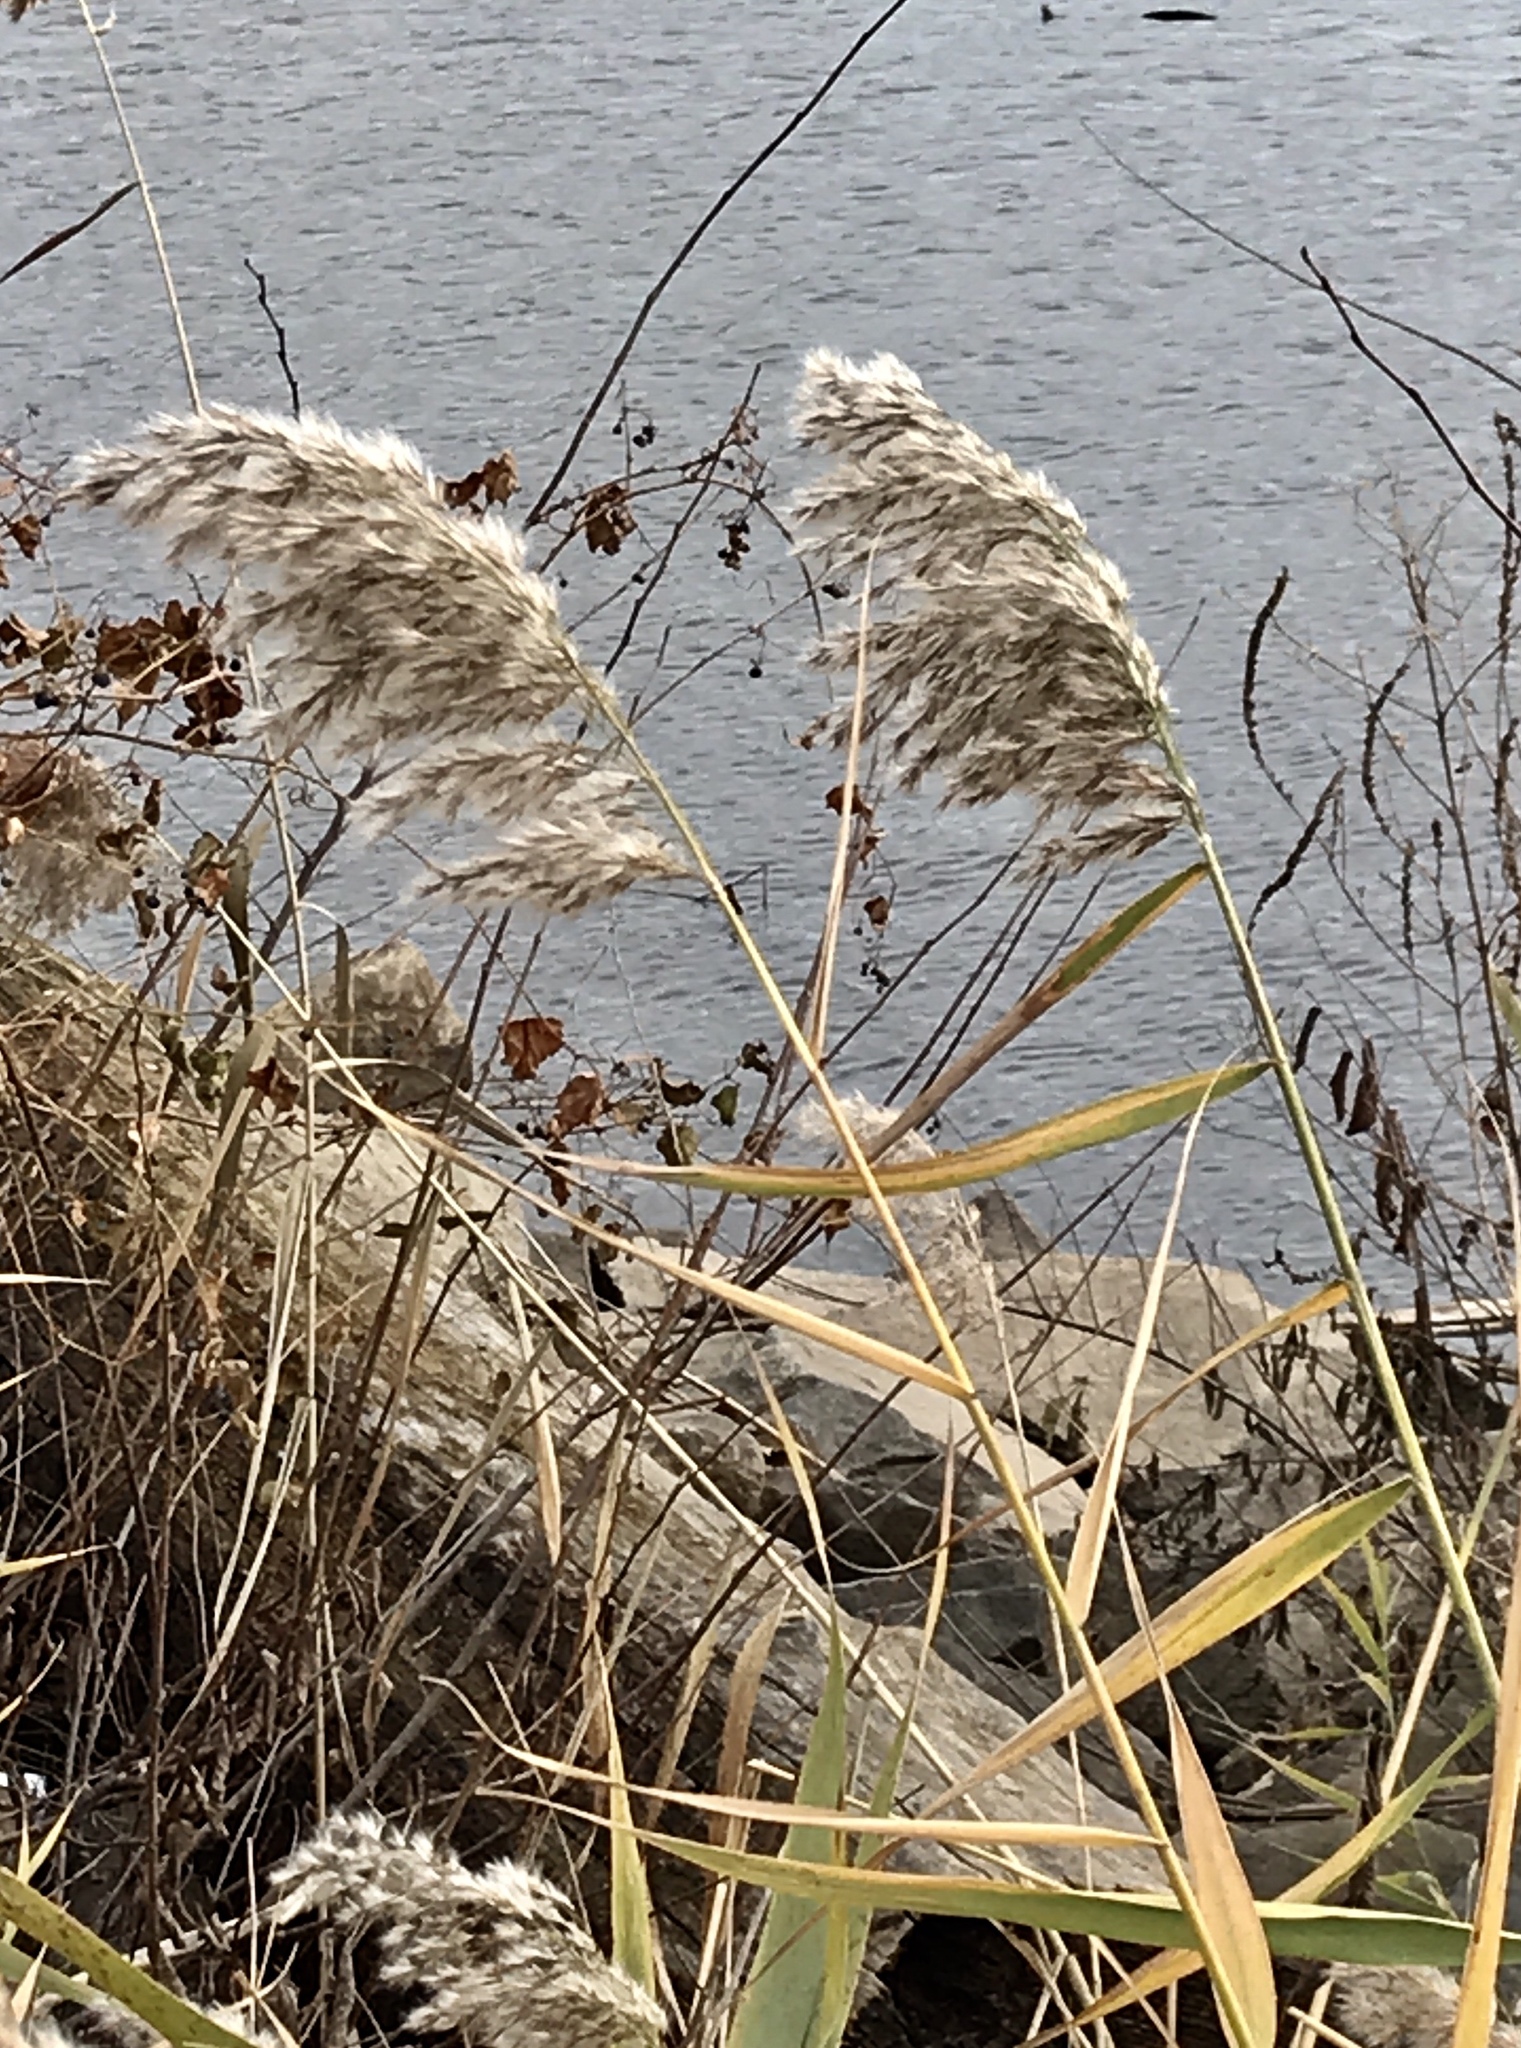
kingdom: Plantae
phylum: Tracheophyta
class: Liliopsida
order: Poales
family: Poaceae
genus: Phragmites
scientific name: Phragmites australis
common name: Common reed
